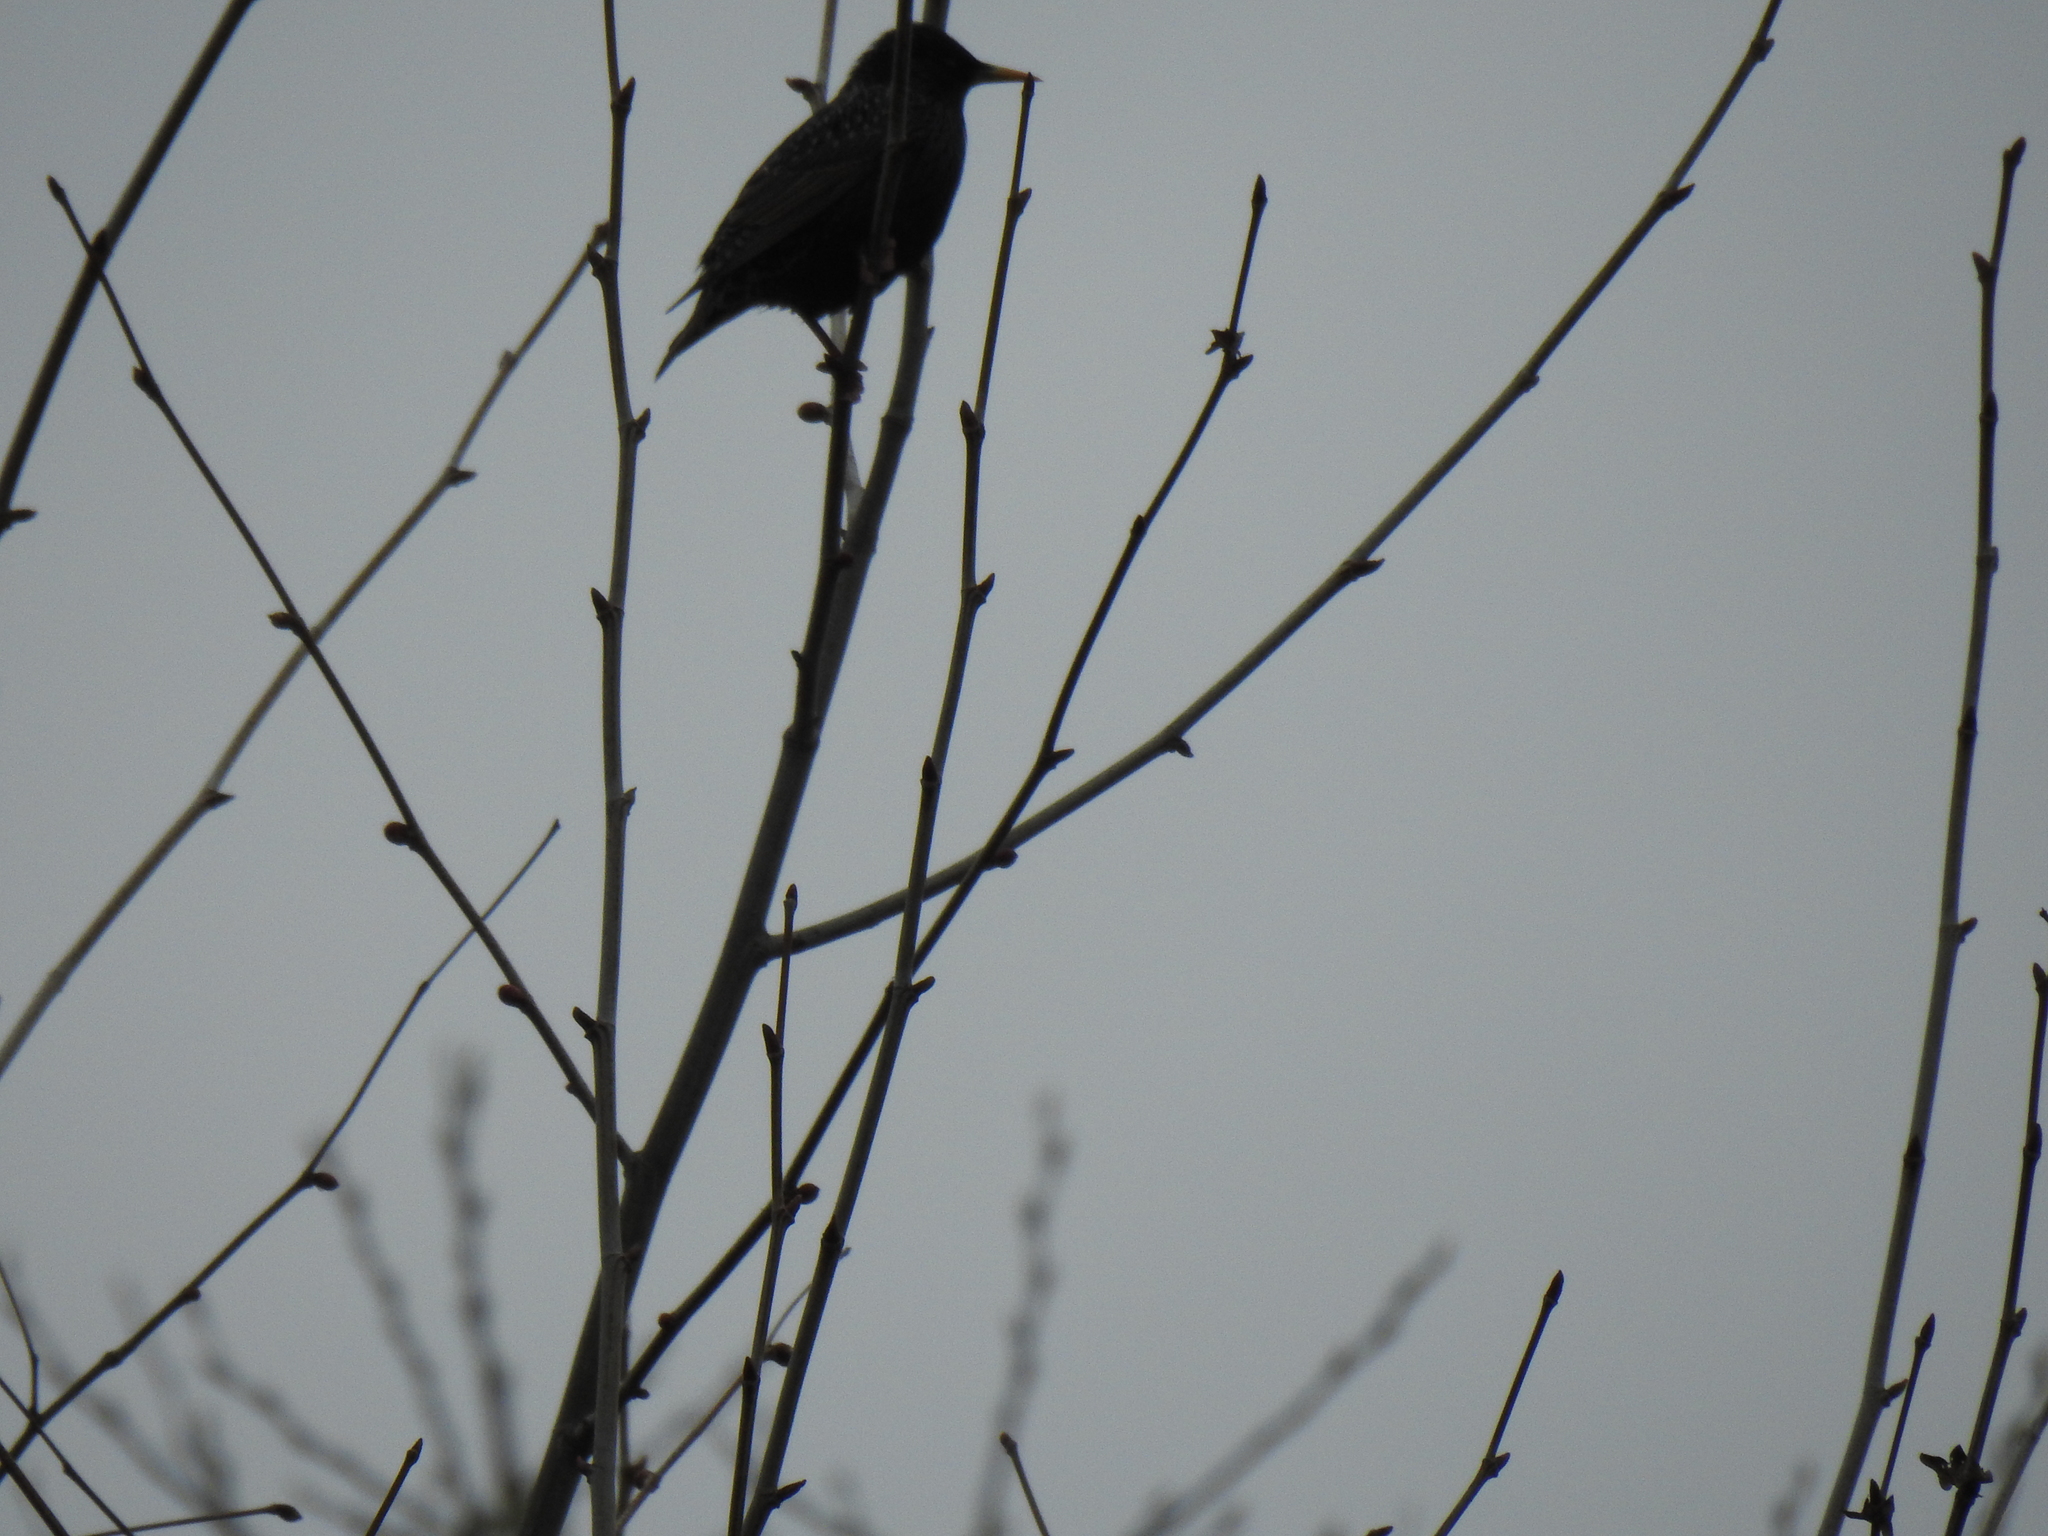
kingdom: Animalia
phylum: Chordata
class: Aves
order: Passeriformes
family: Sturnidae
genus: Sturnus
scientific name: Sturnus vulgaris
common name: Common starling
